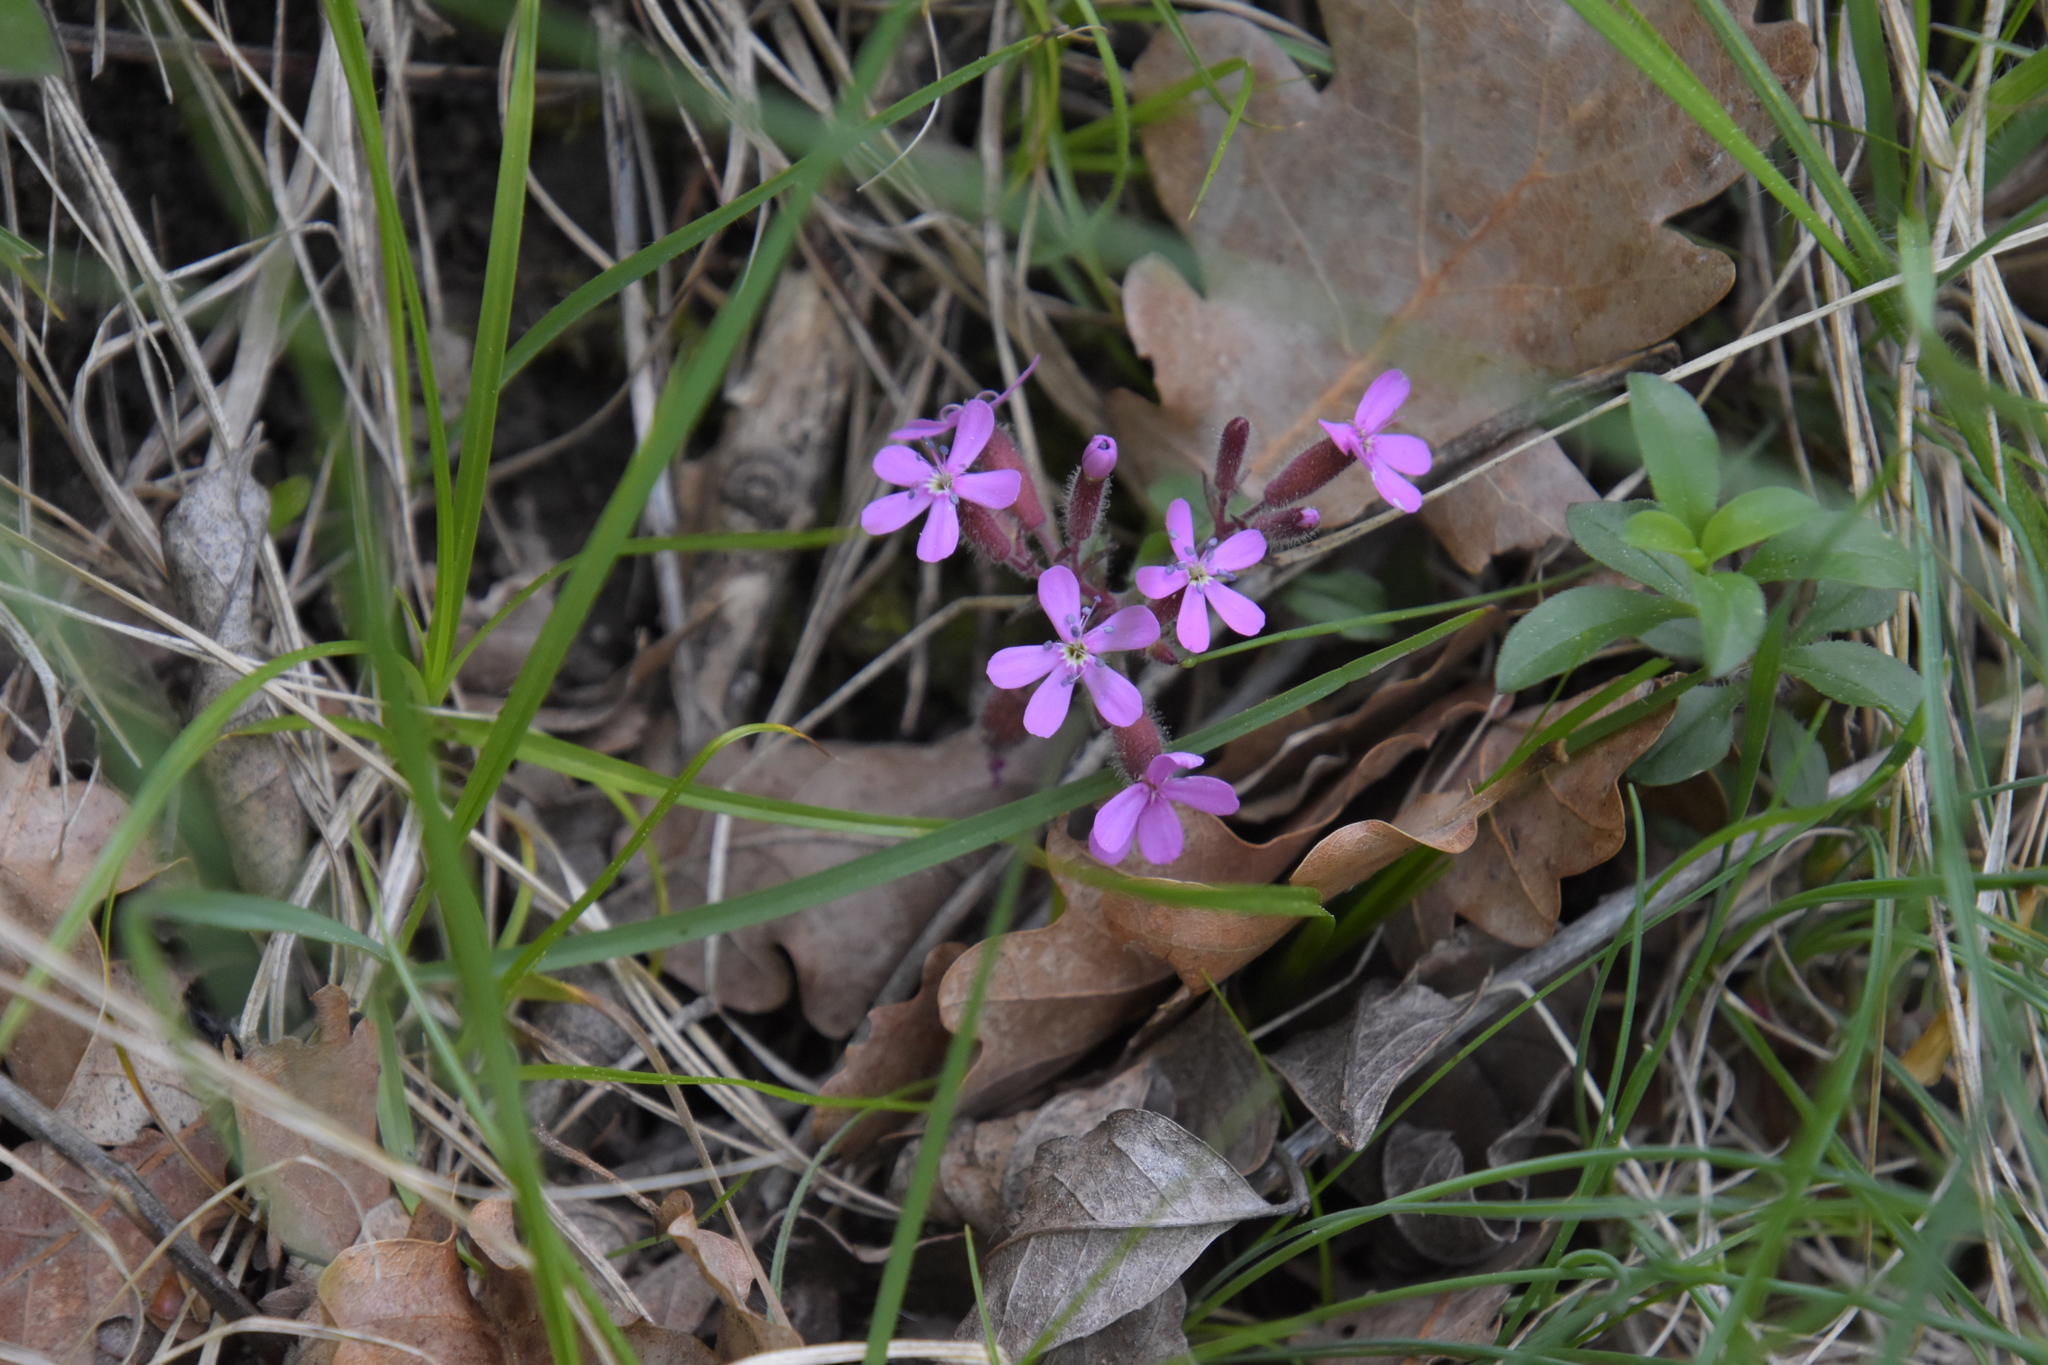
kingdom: Plantae
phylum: Tracheophyta
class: Magnoliopsida
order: Caryophyllales
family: Caryophyllaceae
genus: Saponaria
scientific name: Saponaria ocymoides
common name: Rock soapwort
